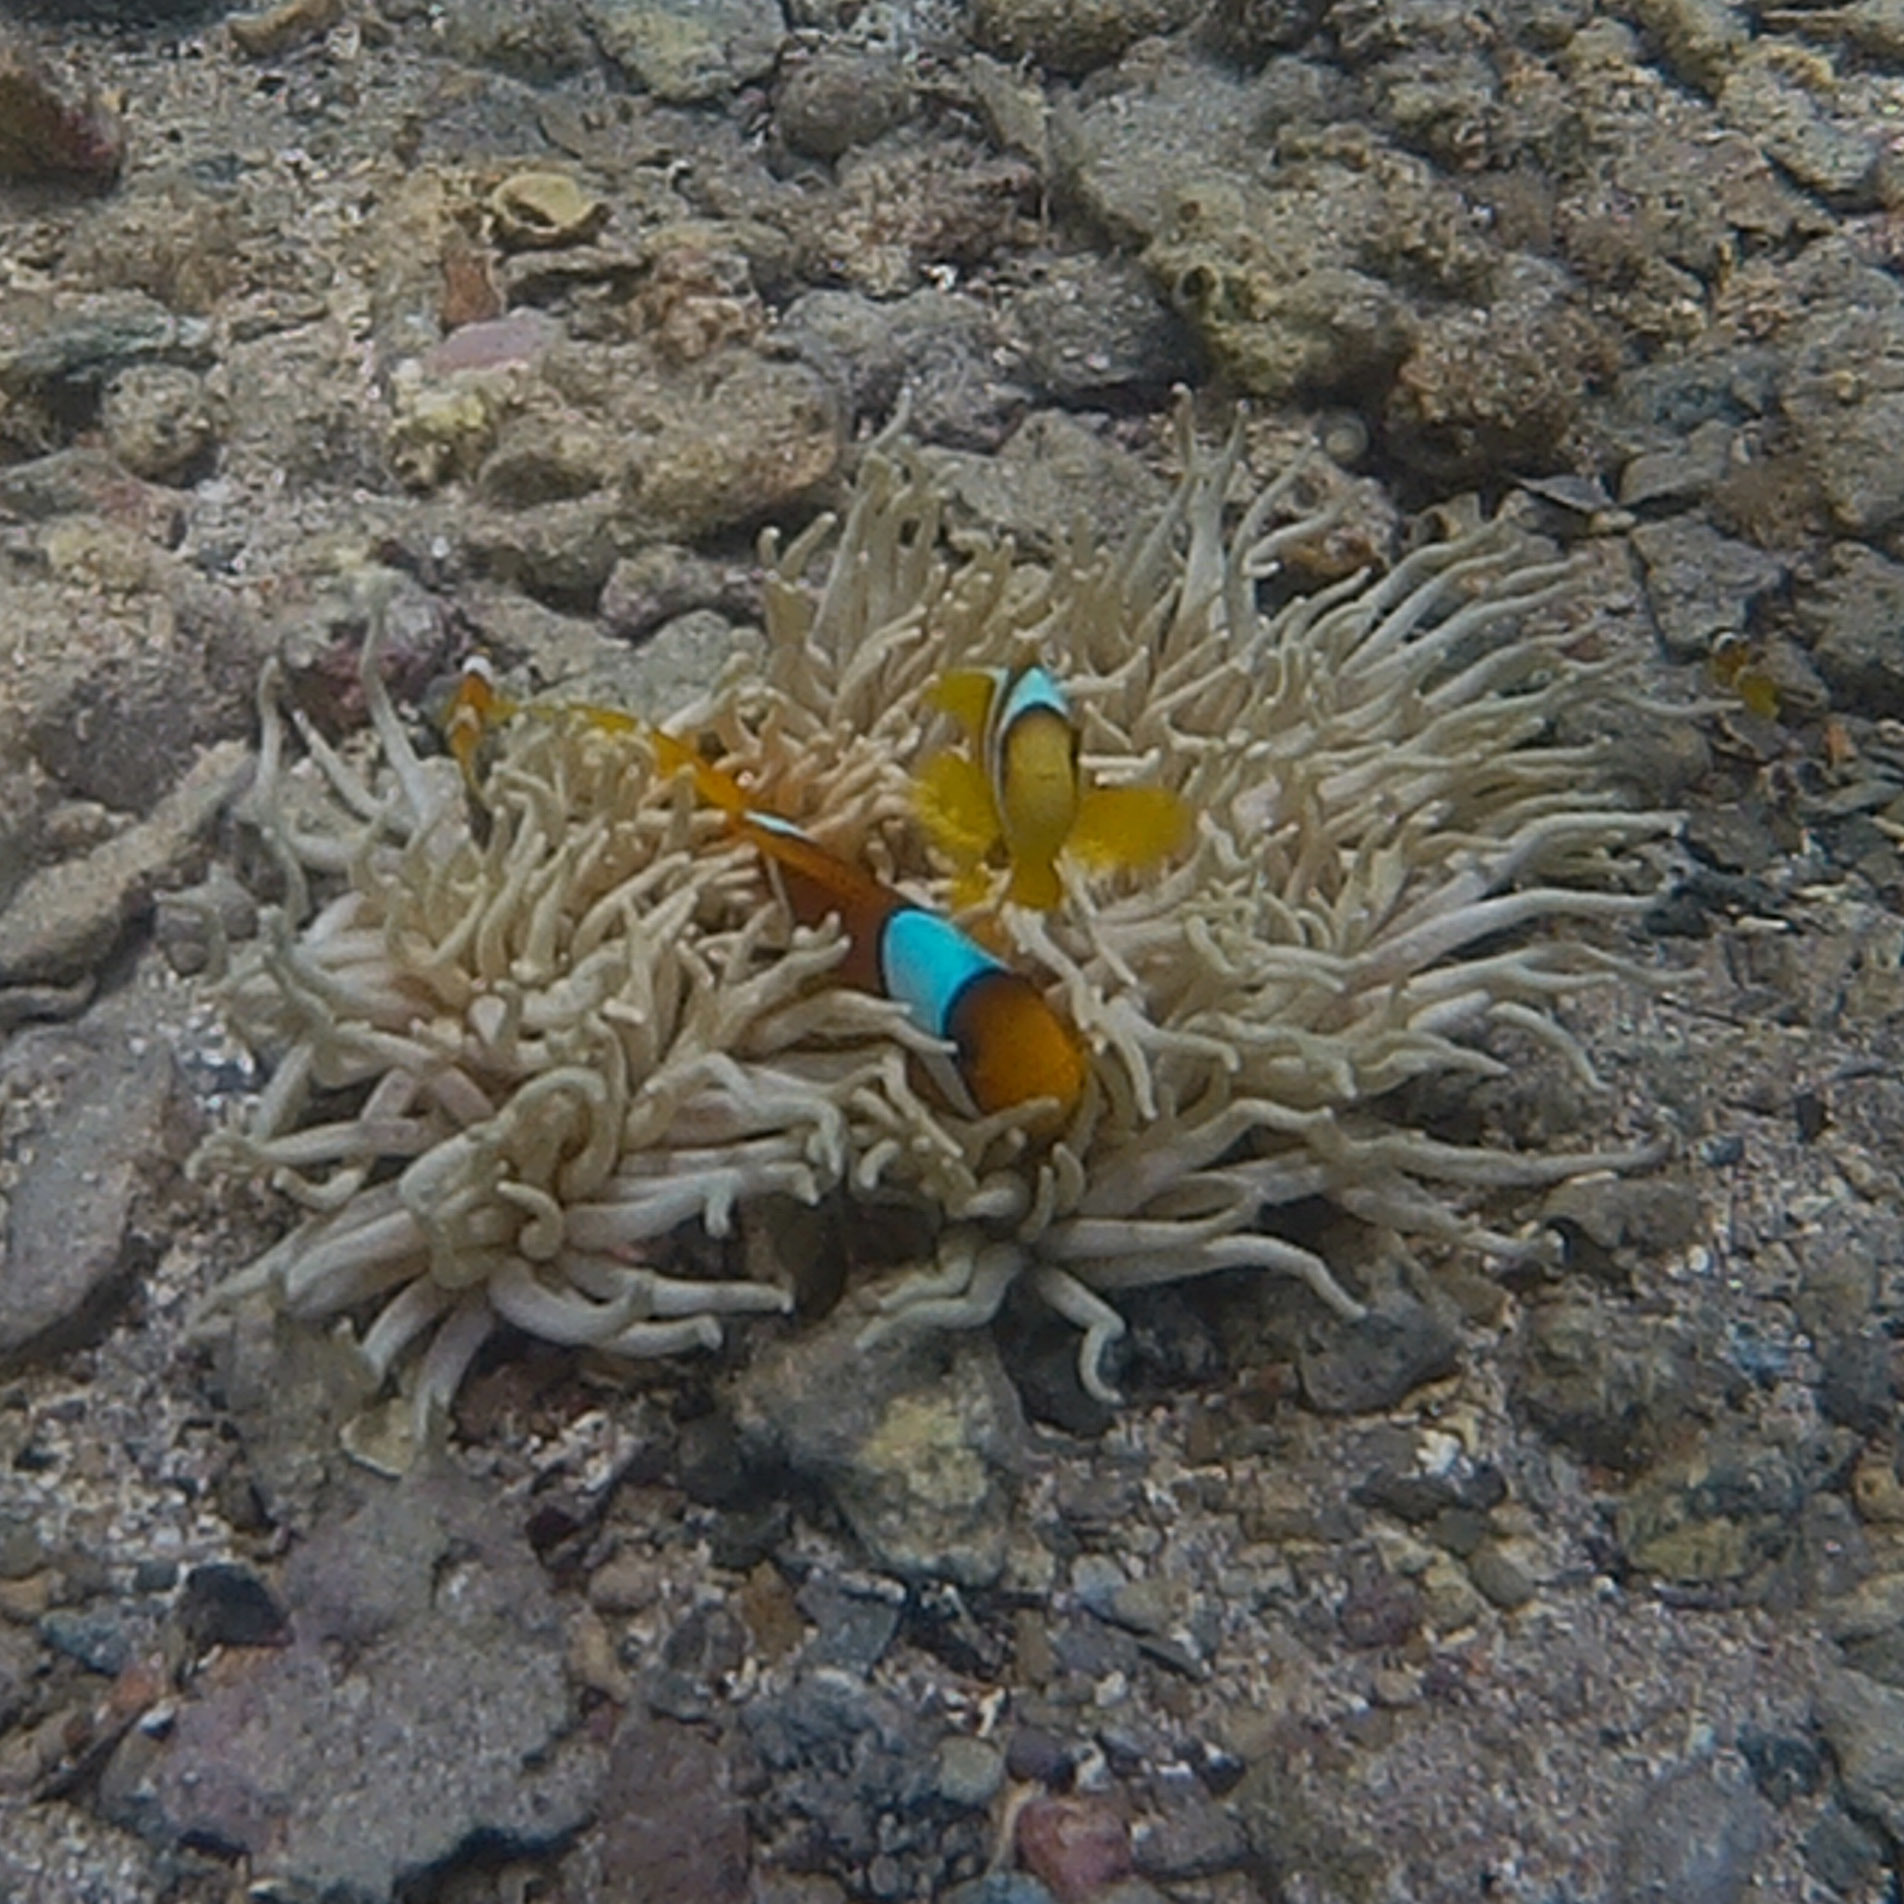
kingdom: Animalia
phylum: Chordata
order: Perciformes
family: Pomacentridae
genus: Amphiprion
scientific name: Amphiprion bicinctus
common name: Two-banded anemonefish
